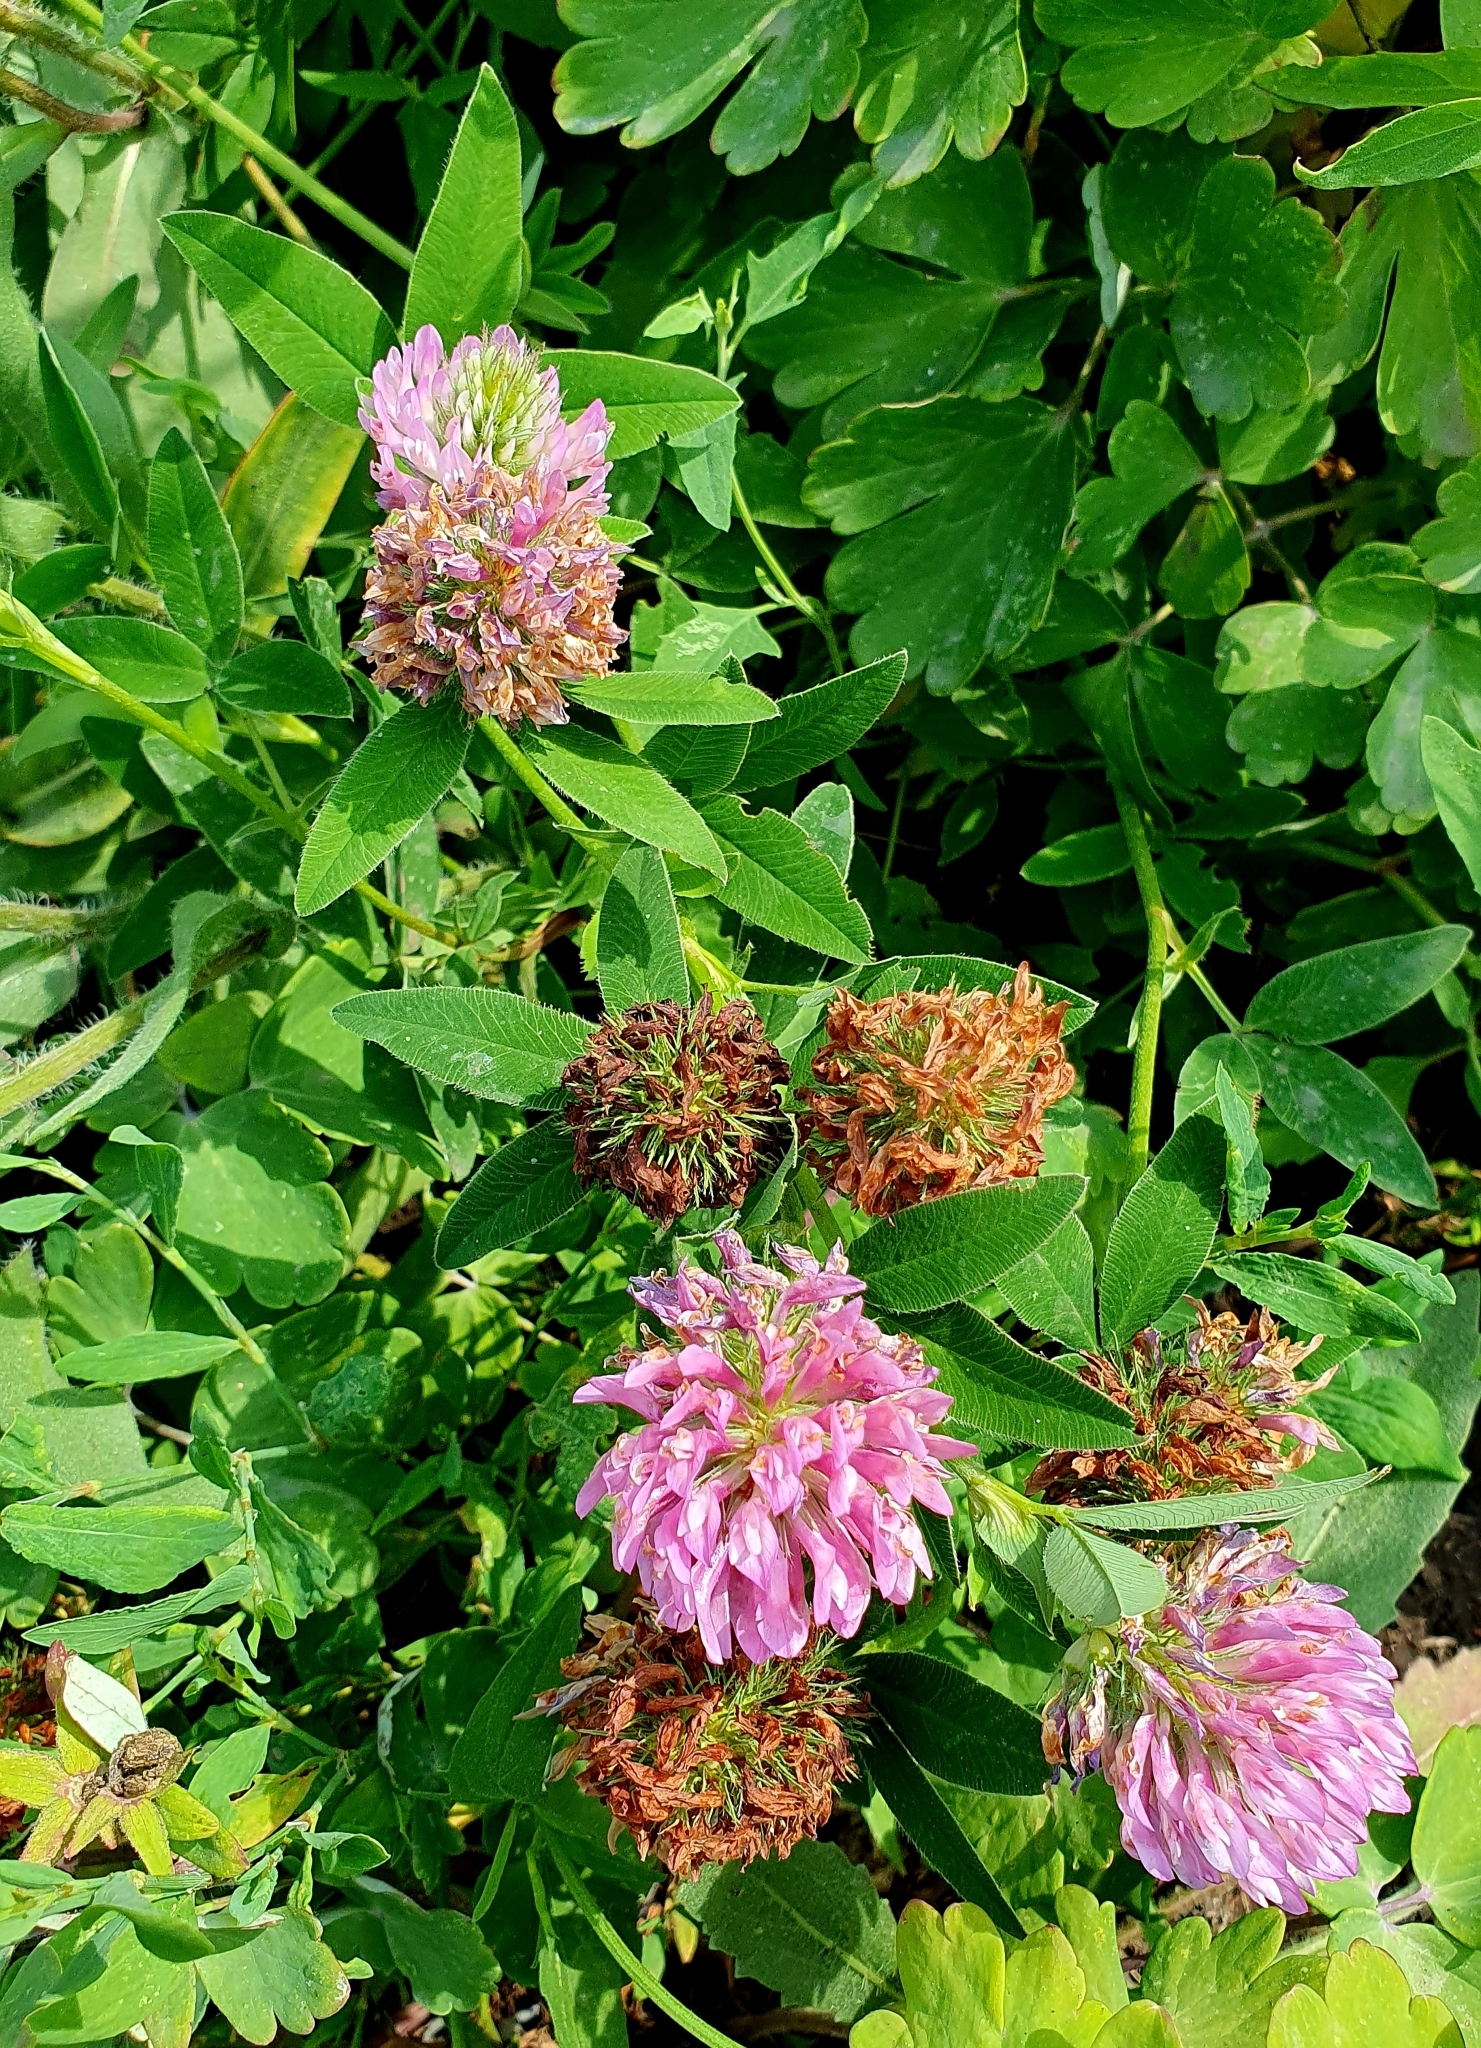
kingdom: Plantae
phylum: Tracheophyta
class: Magnoliopsida
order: Fabales
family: Fabaceae
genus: Trifolium
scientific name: Trifolium medium
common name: Zigzag clover
